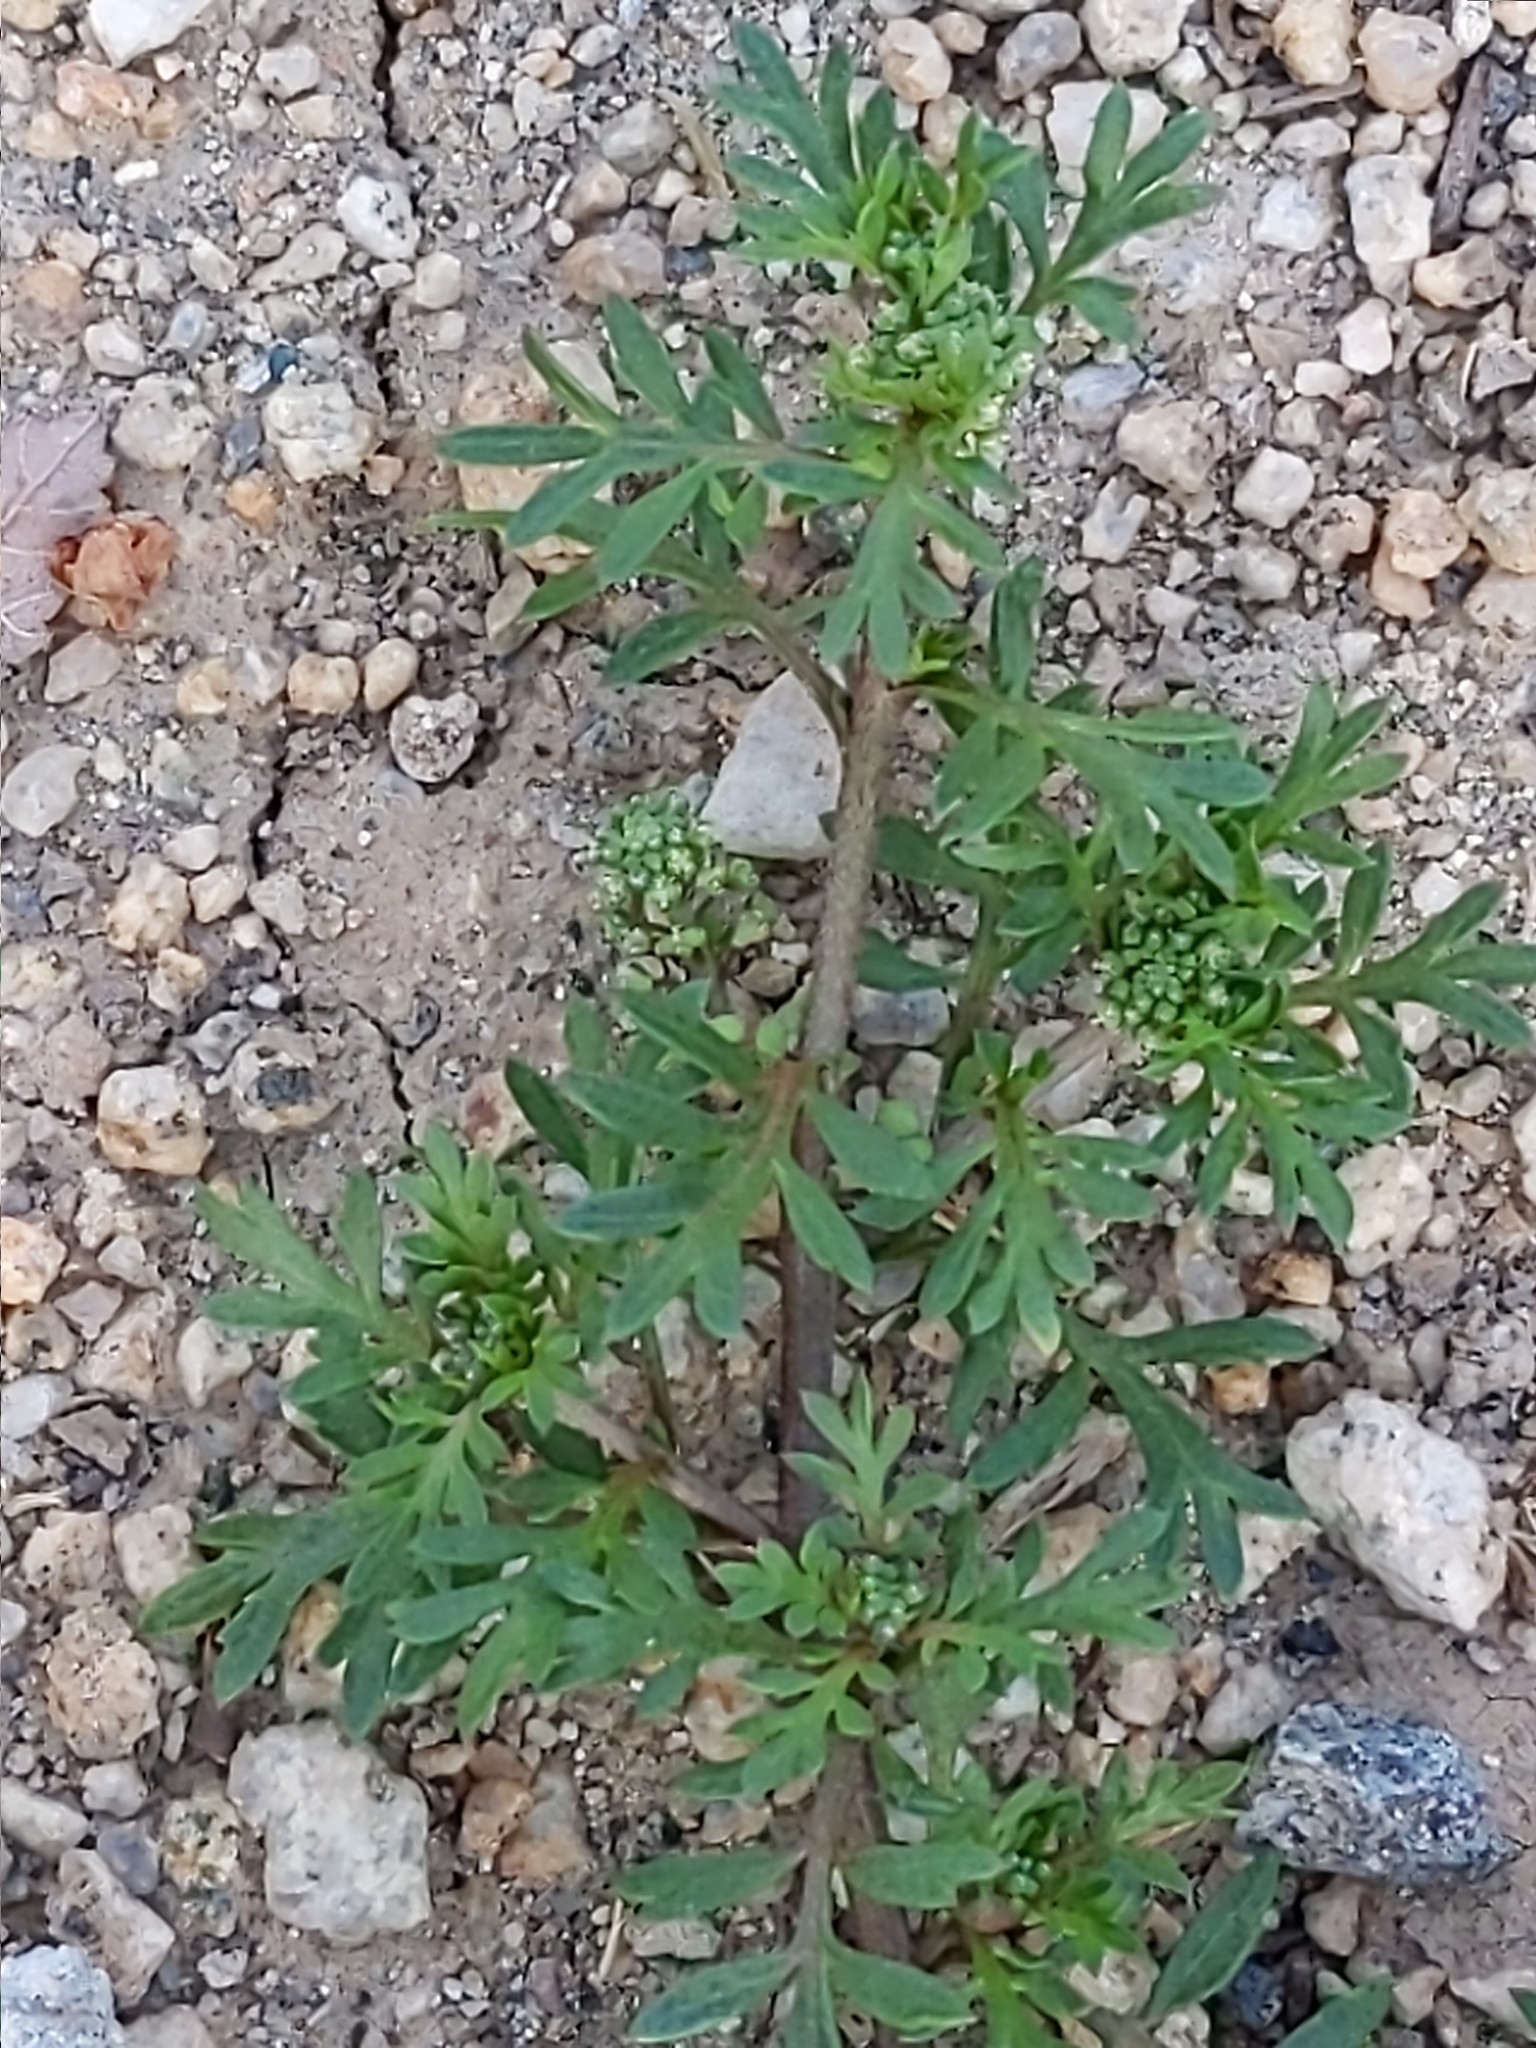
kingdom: Plantae
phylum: Tracheophyta
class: Magnoliopsida
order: Brassicales
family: Brassicaceae
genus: Lepidium
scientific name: Lepidium didymum
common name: Lesser swinecress
